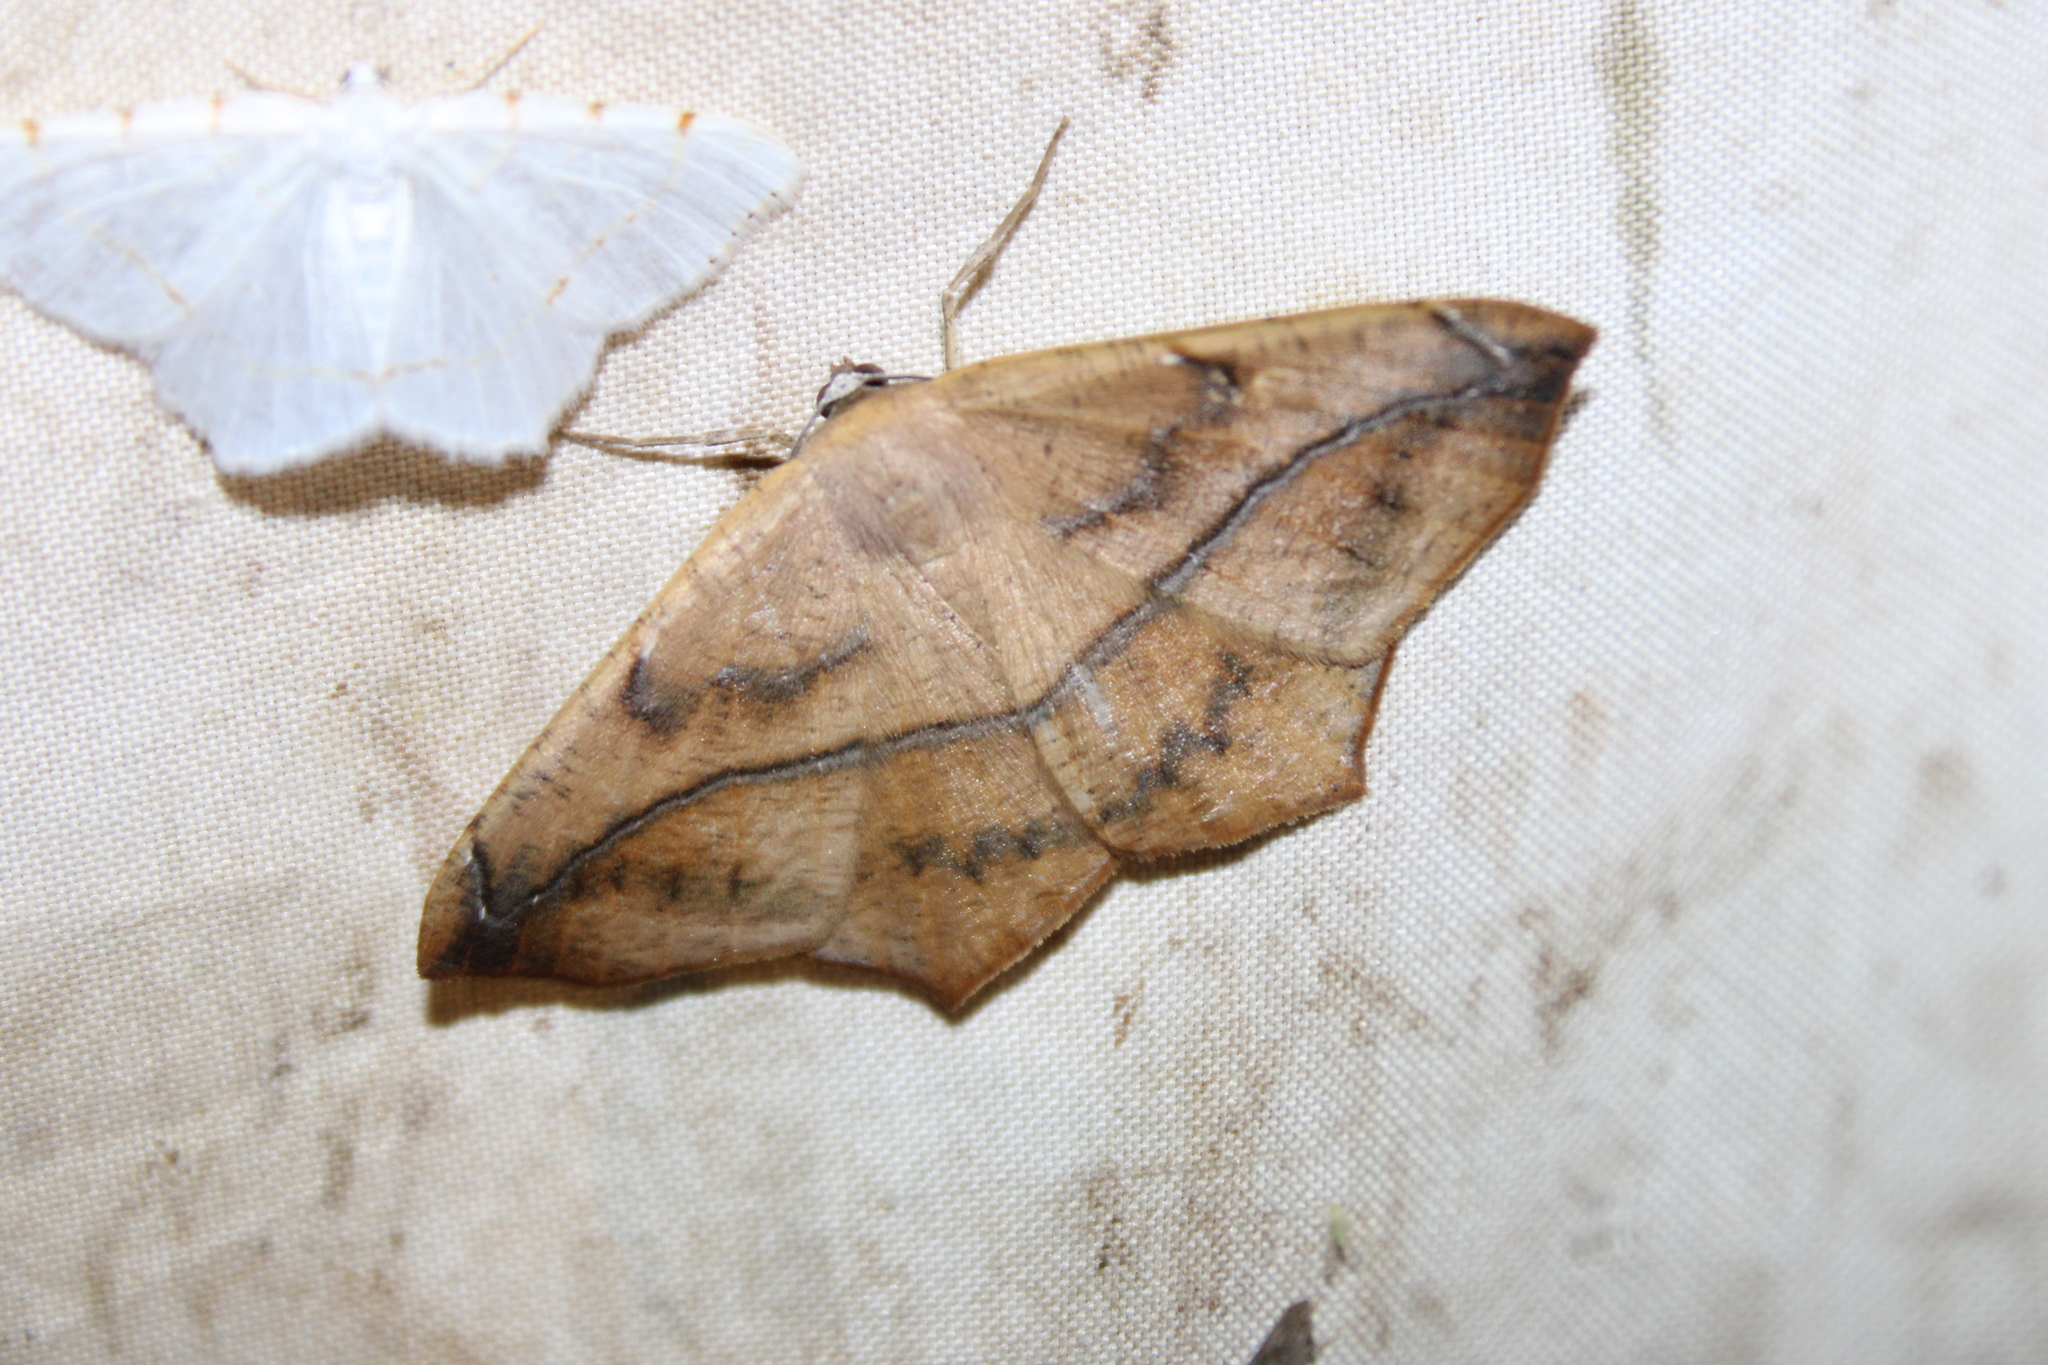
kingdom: Animalia
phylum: Arthropoda
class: Insecta
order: Lepidoptera
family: Geometridae
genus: Prochoerodes
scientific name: Prochoerodes lineola
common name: Large maple spanworm
